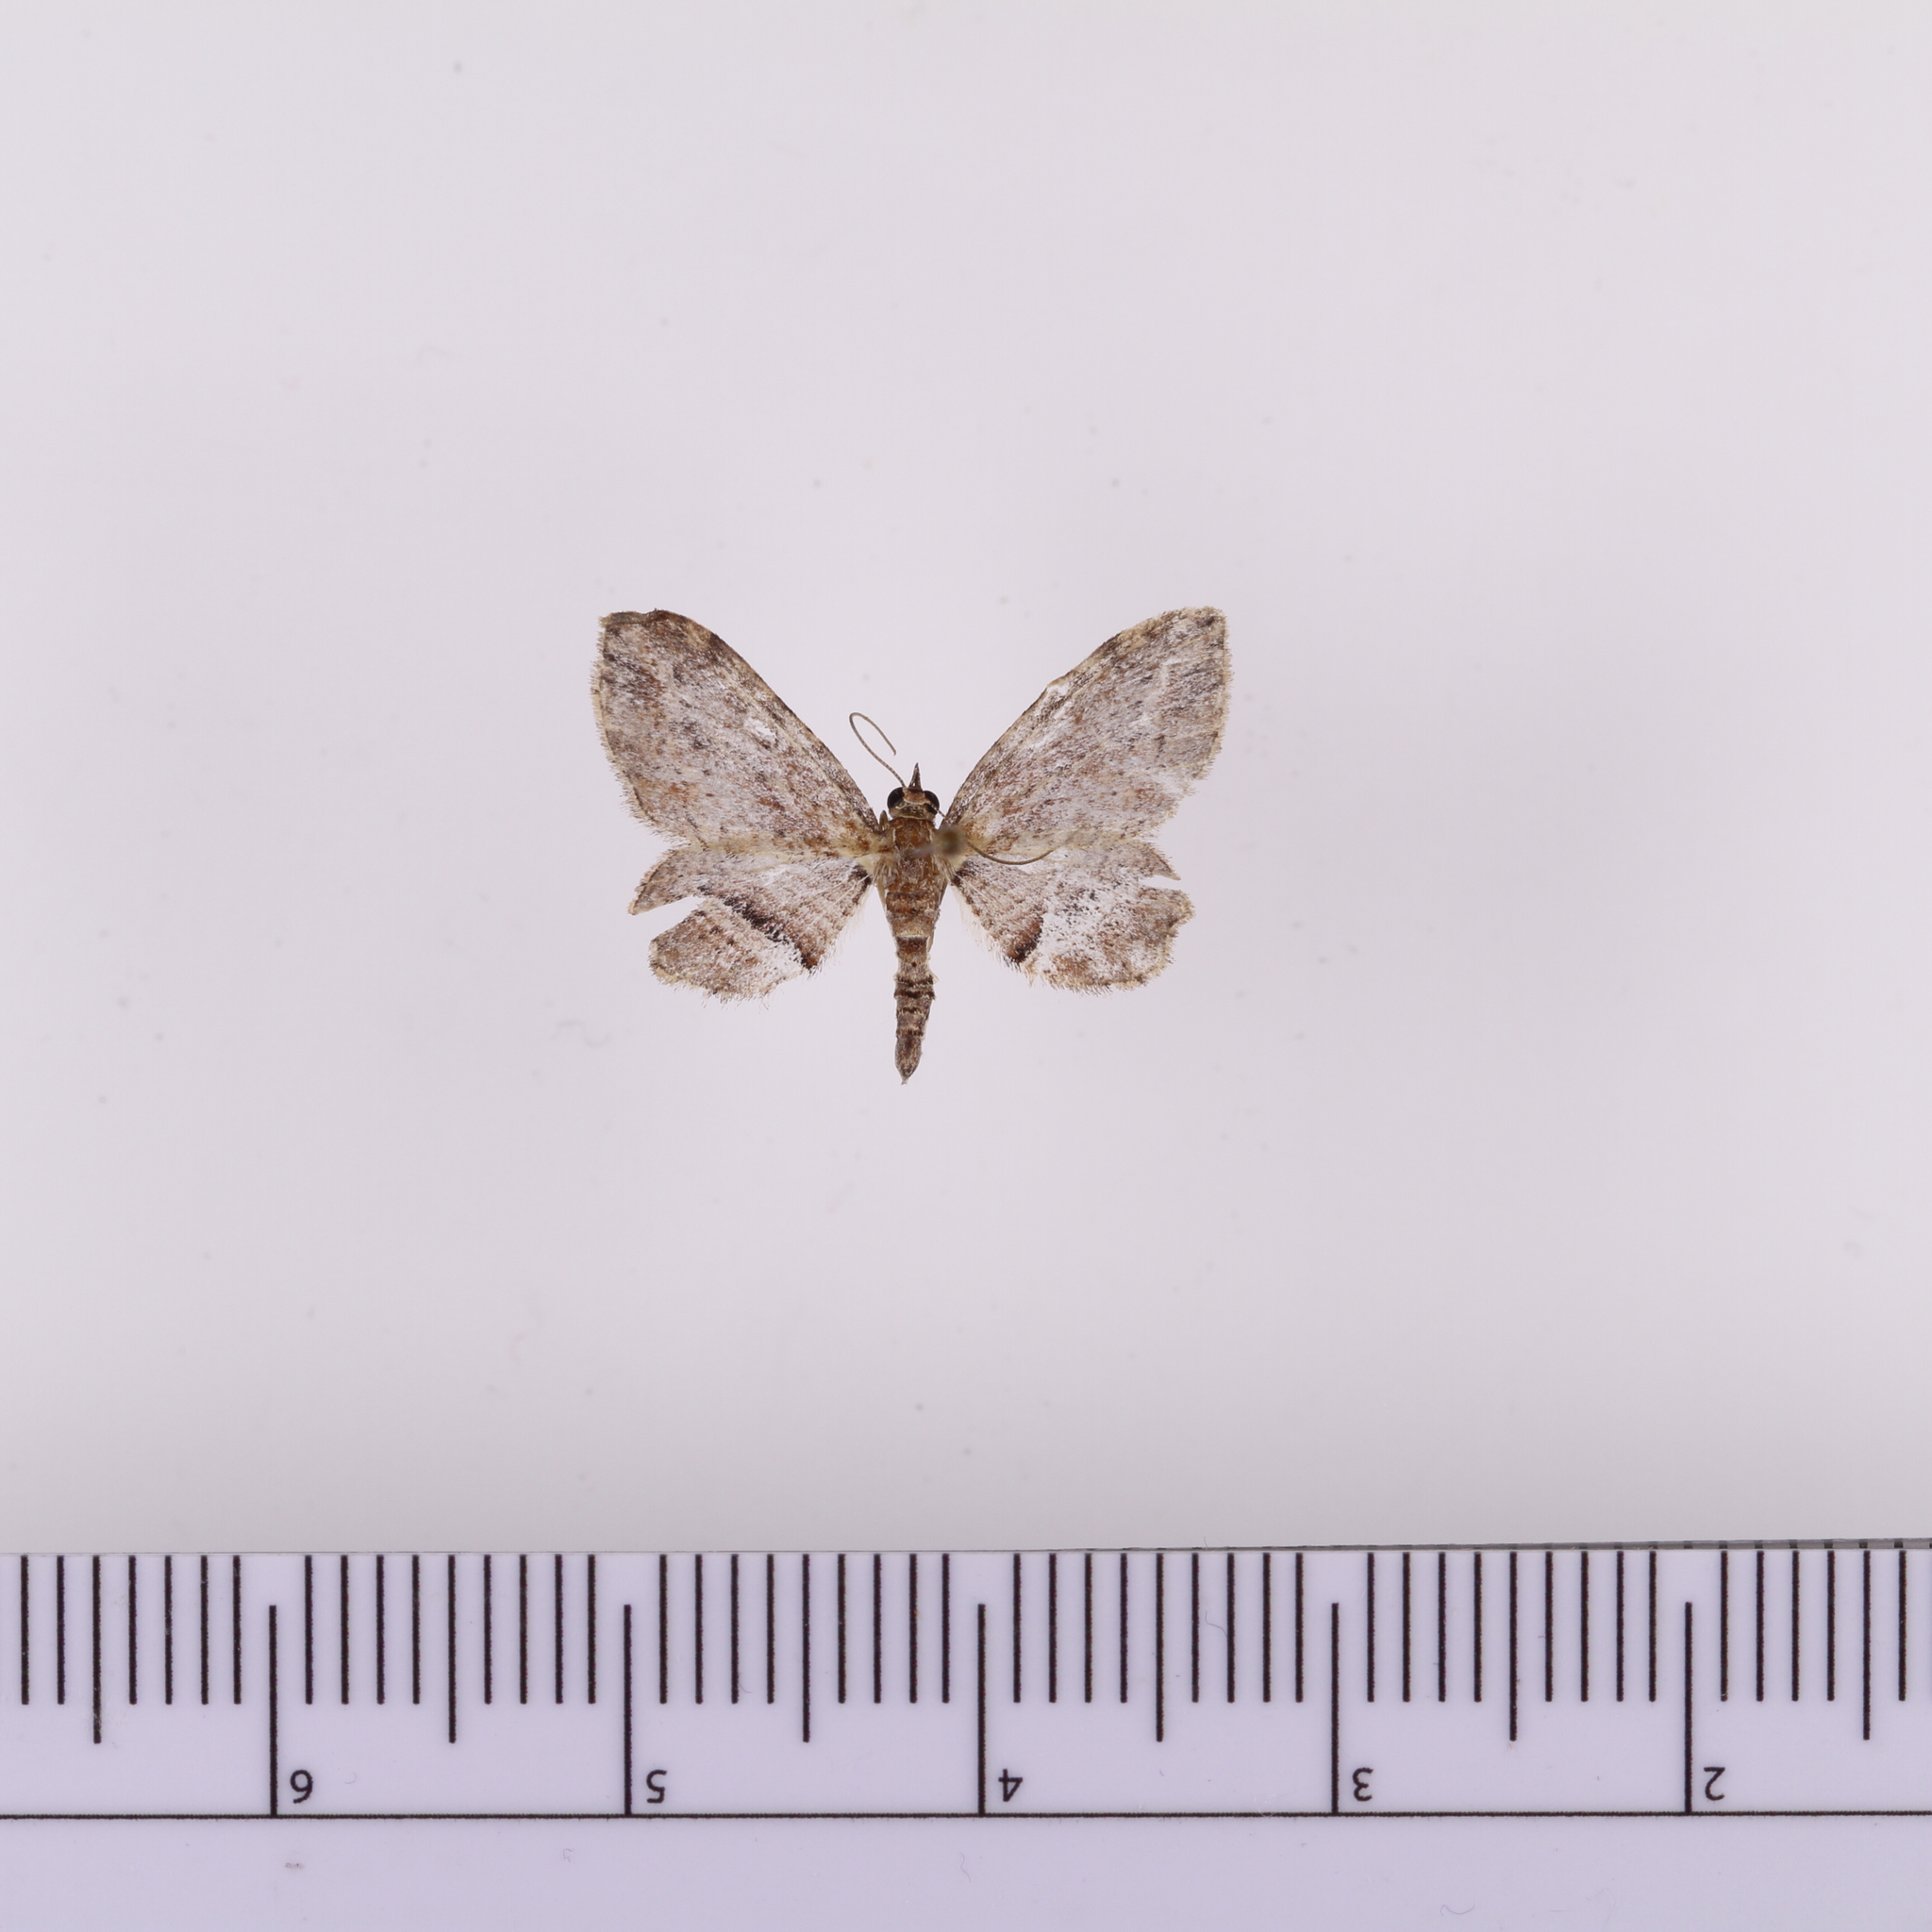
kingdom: Animalia
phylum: Arthropoda
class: Insecta
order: Lepidoptera
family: Geometridae
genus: Chloroclystis
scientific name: Chloroclystis filata
